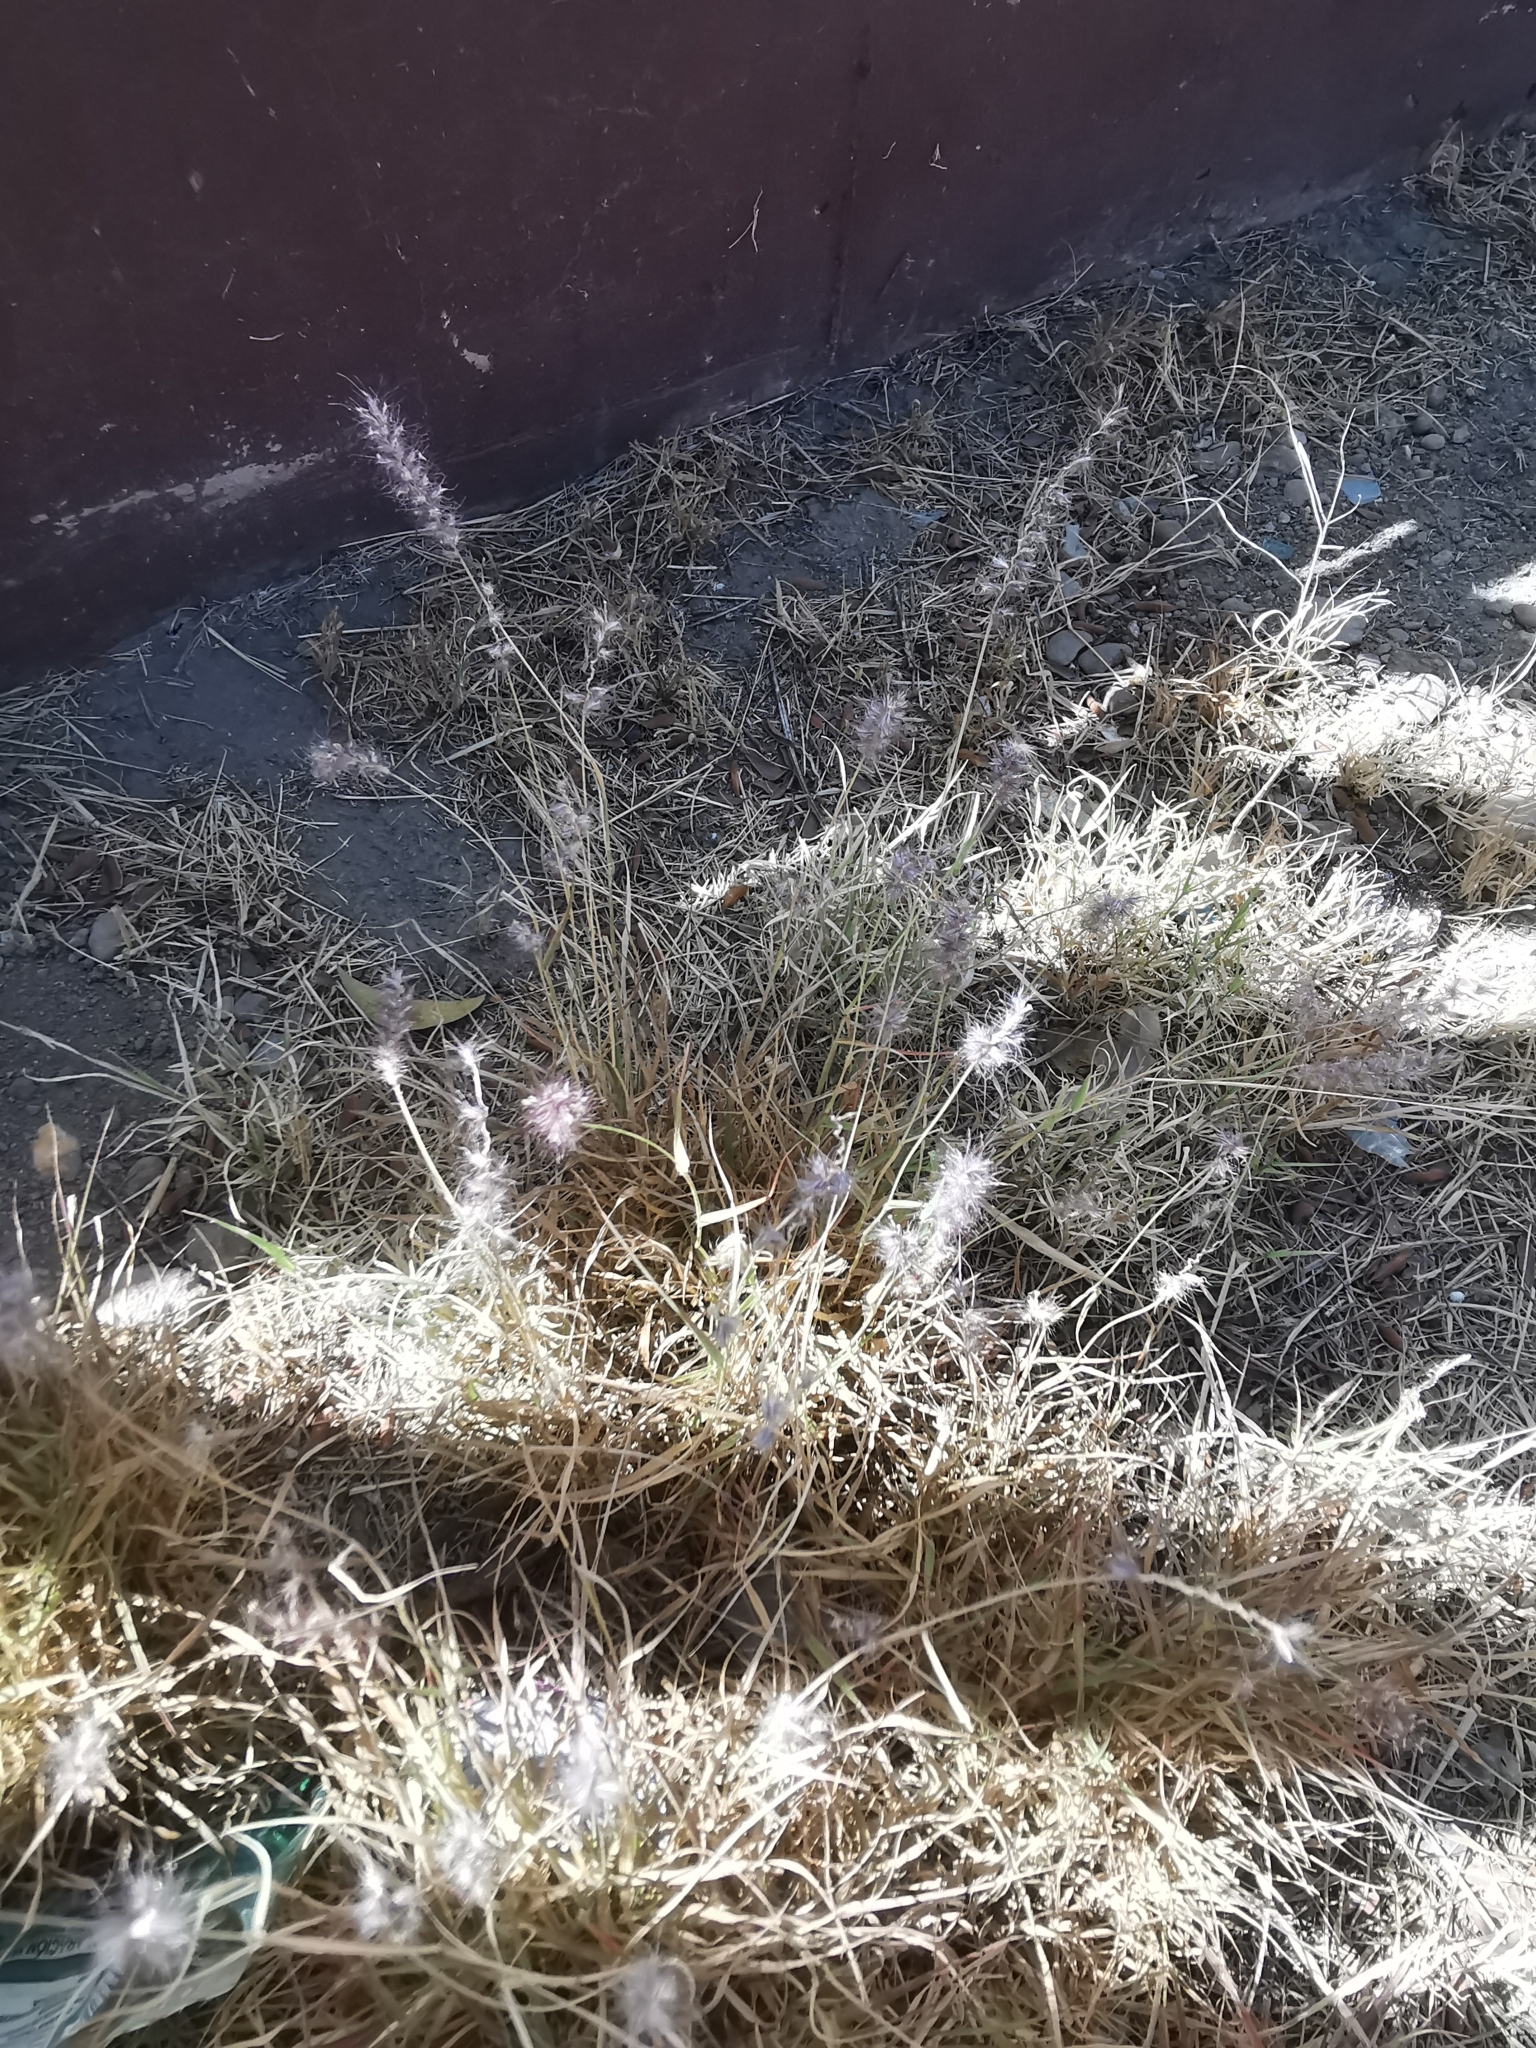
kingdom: Plantae
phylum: Tracheophyta
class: Liliopsida
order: Poales
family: Poaceae
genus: Cenchrus
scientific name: Cenchrus ciliaris
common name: Buffelgrass
